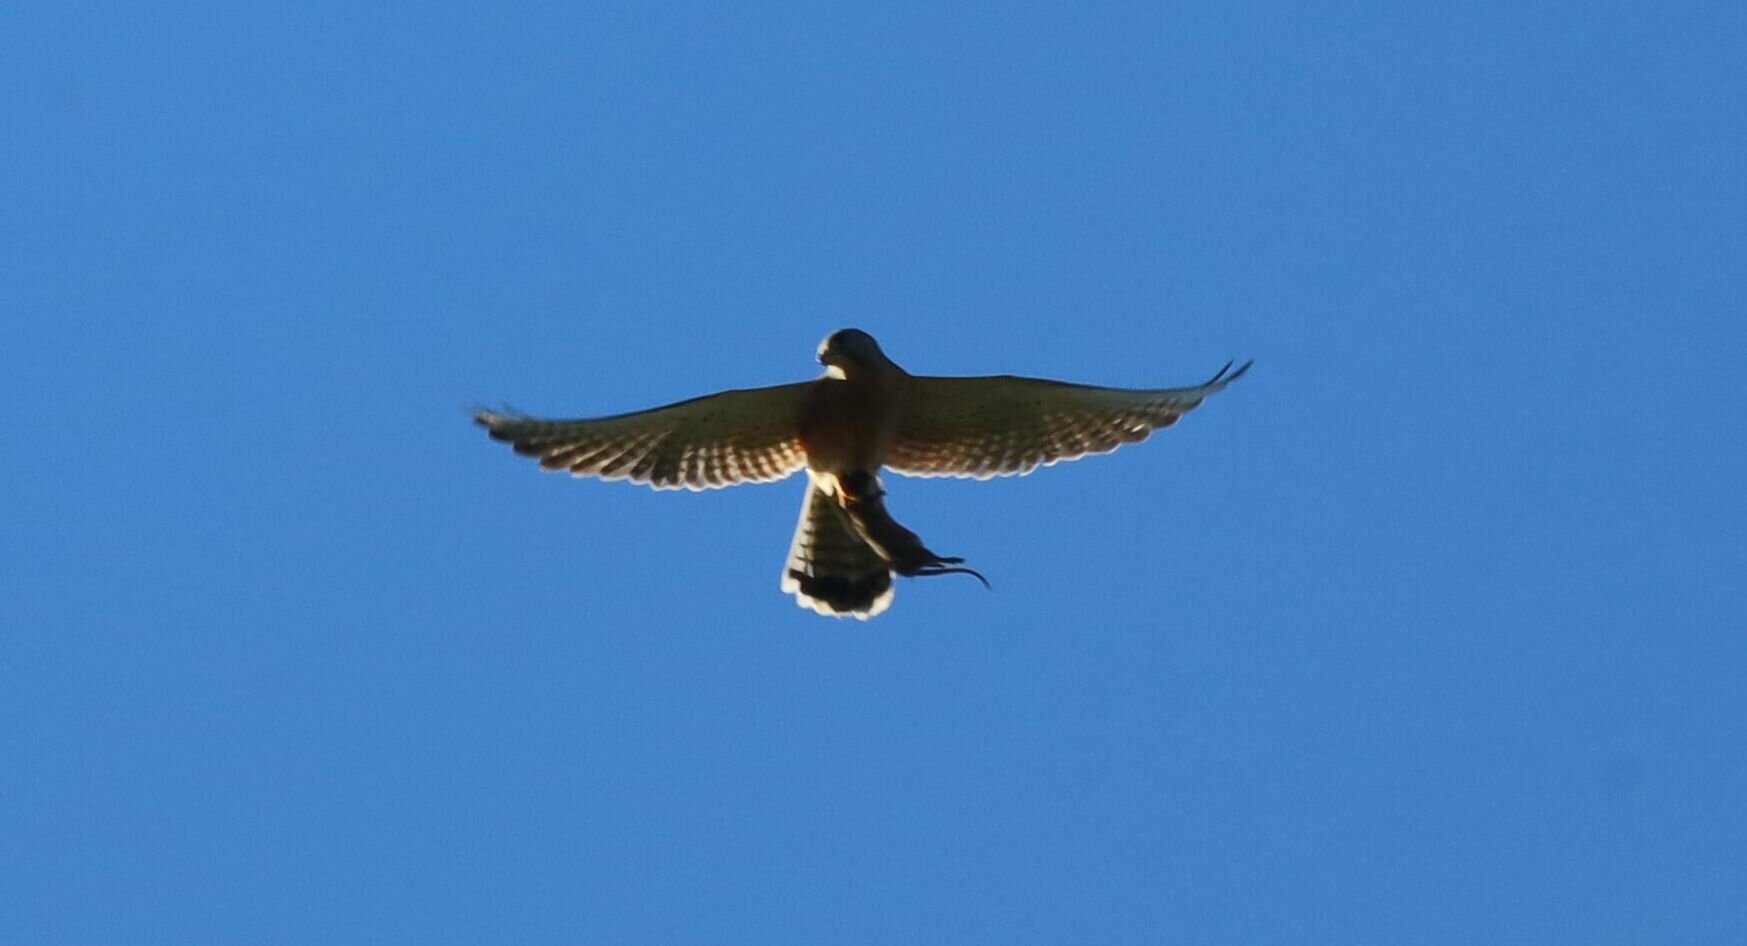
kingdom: Animalia
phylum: Chordata
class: Aves
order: Falconiformes
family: Falconidae
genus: Falco
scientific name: Falco rupicolus
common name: Rock kestrel
